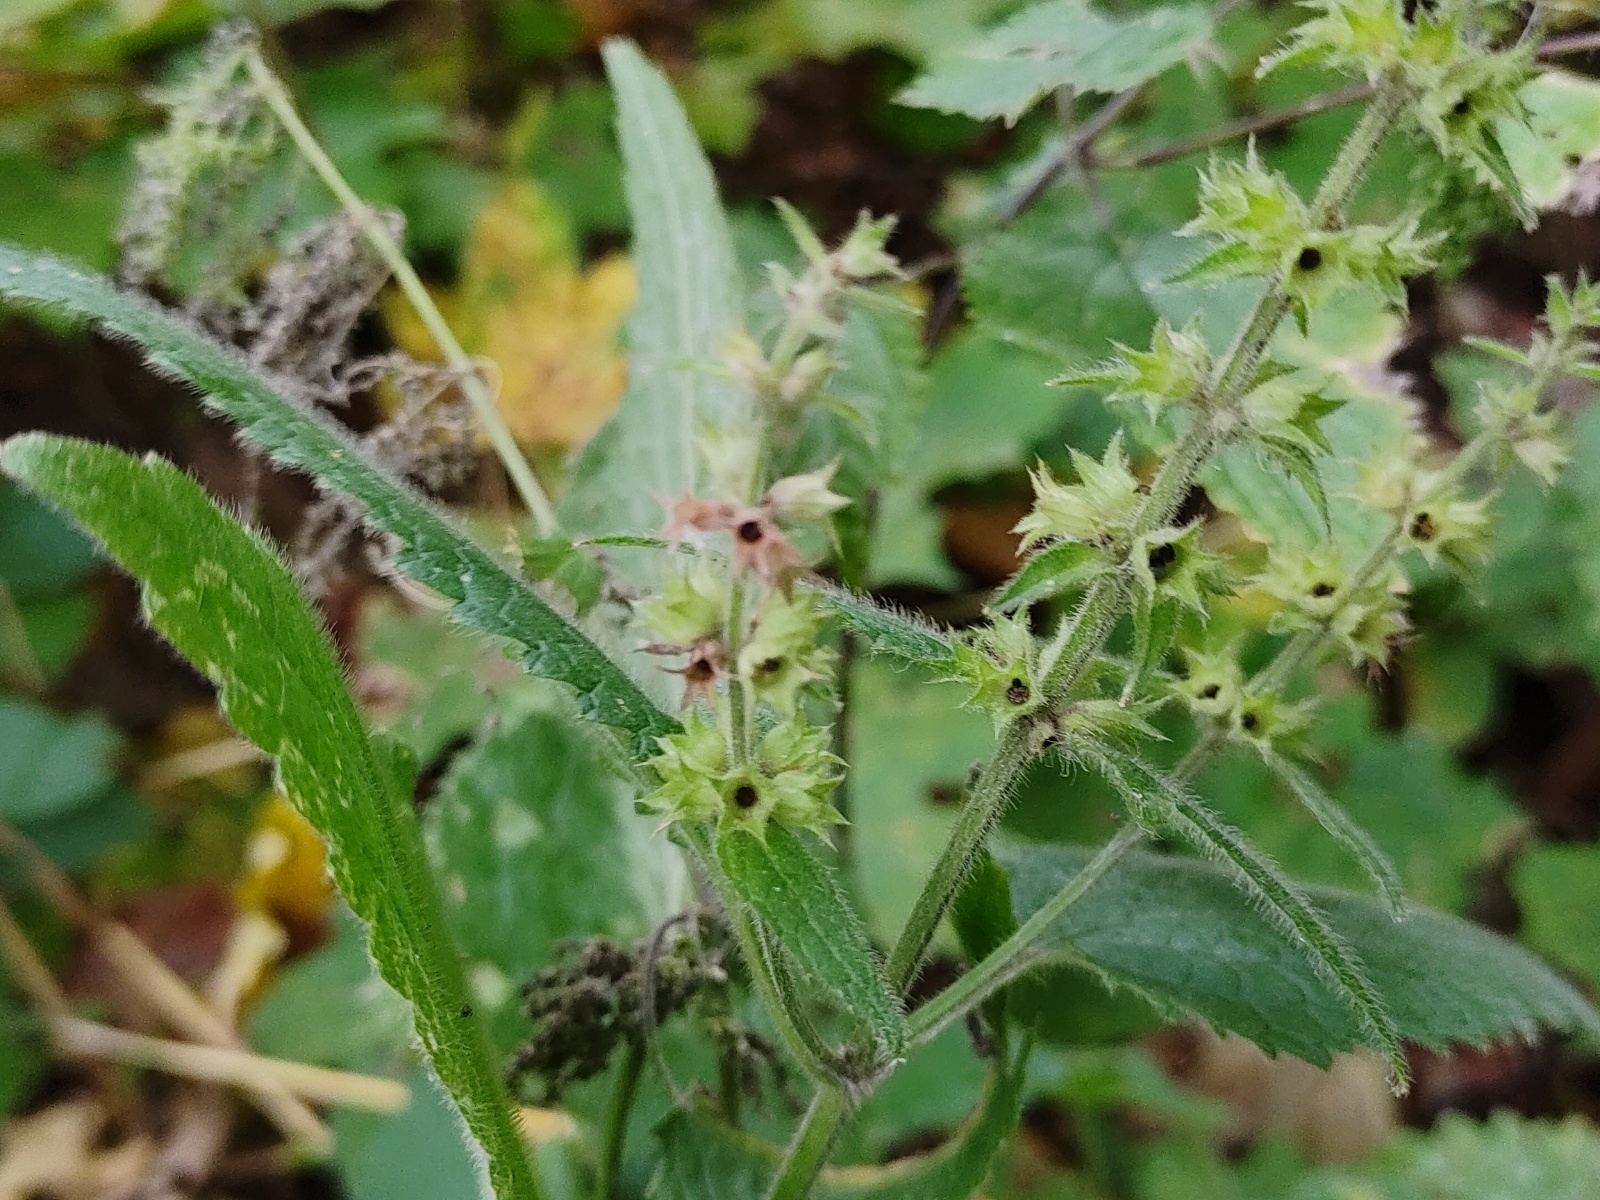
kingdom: Plantae
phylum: Tracheophyta
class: Magnoliopsida
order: Lamiales
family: Lamiaceae
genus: Stachys
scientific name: Stachys sylvatica
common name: Hedge woundwort
